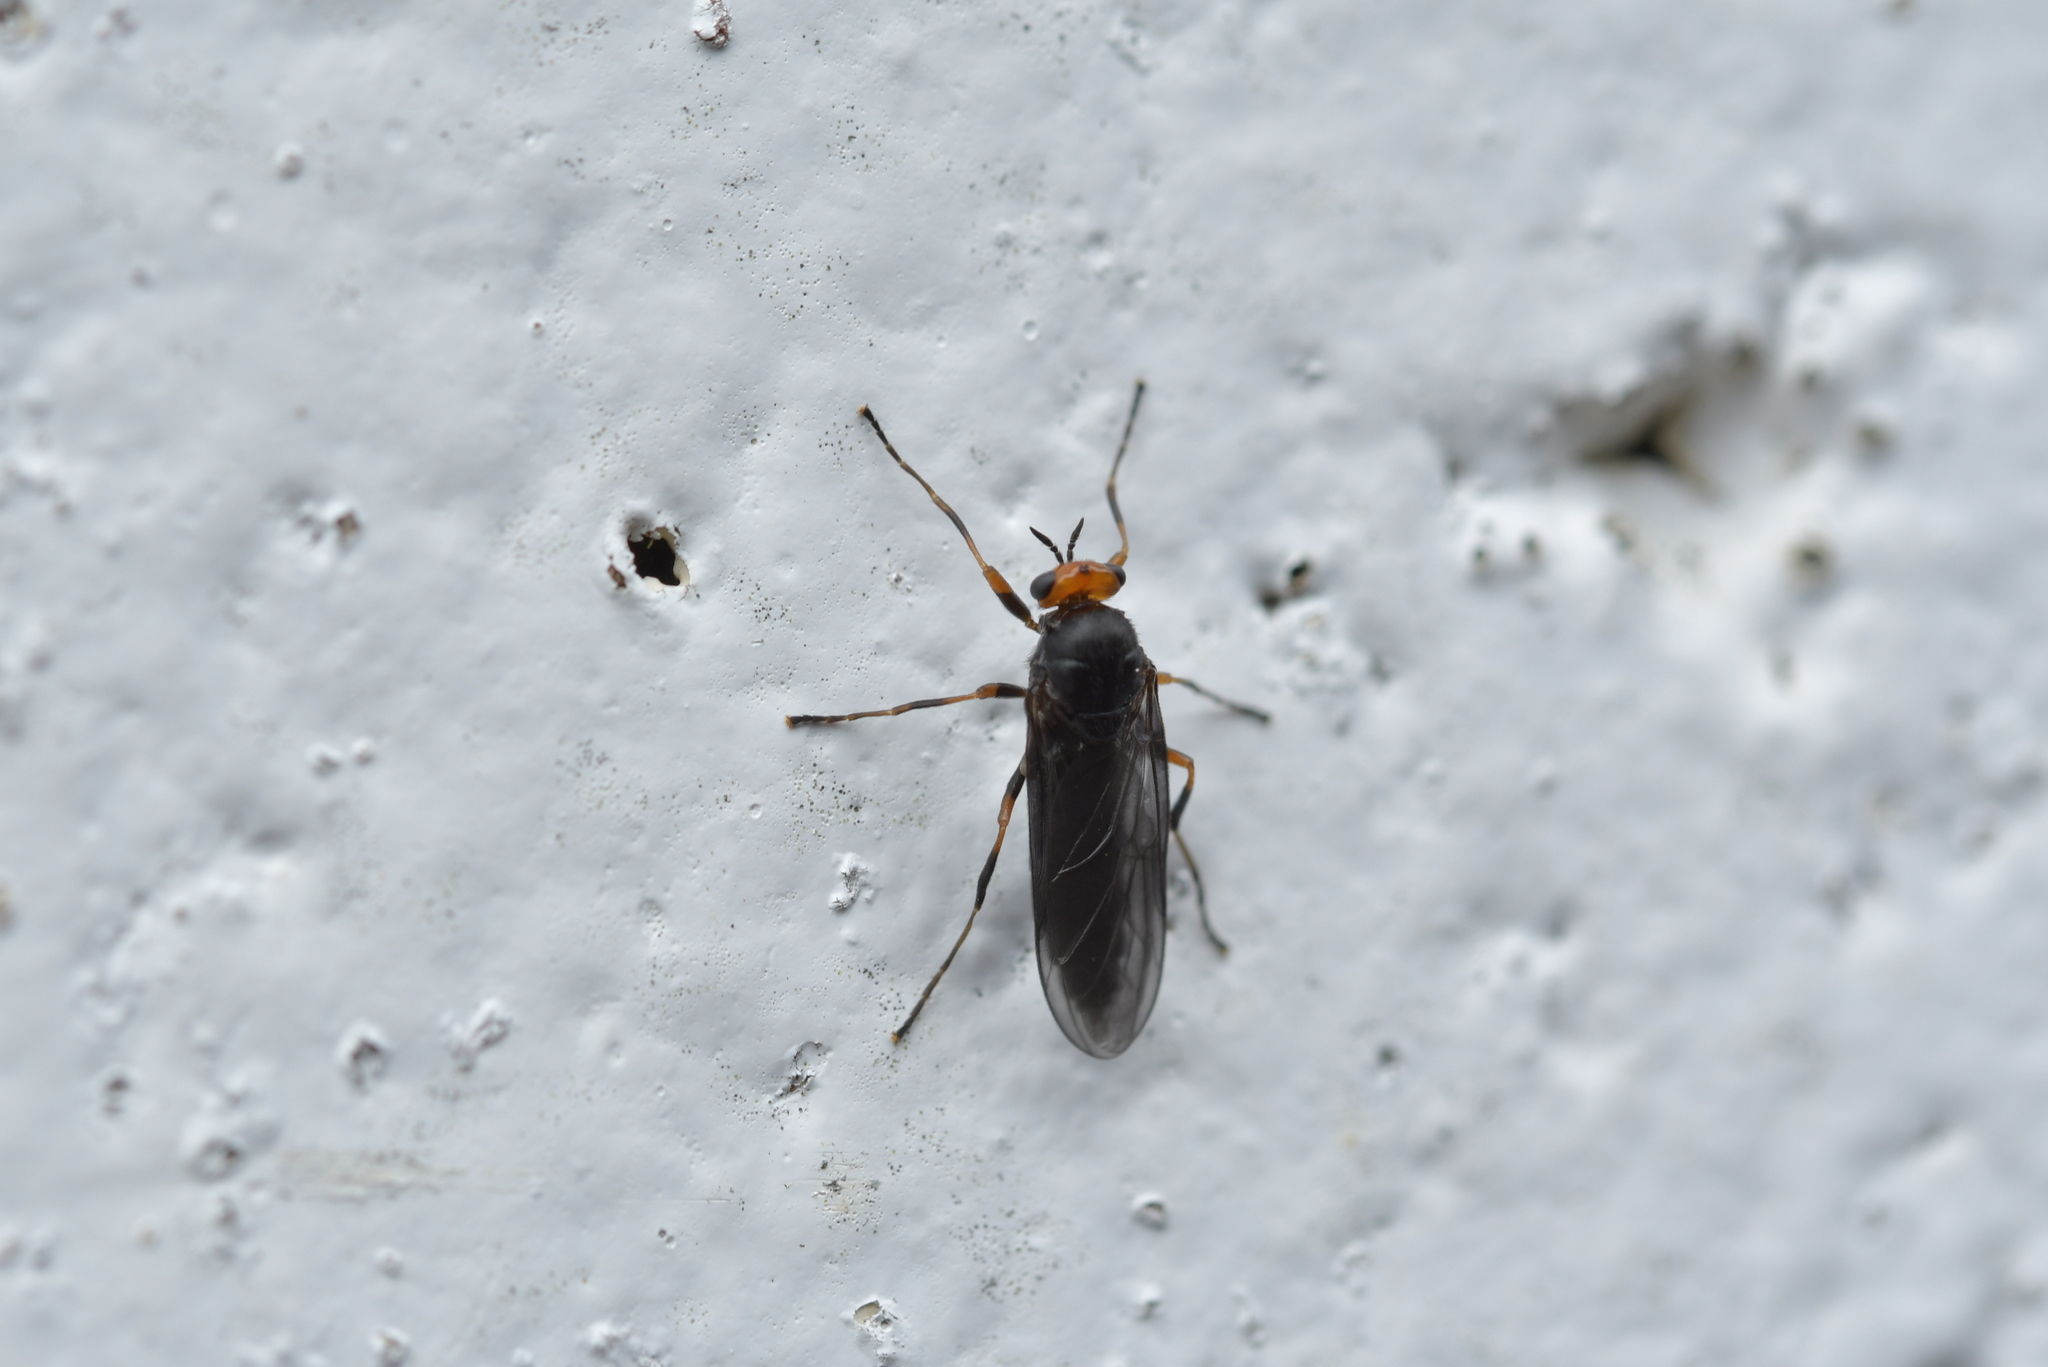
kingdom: Animalia
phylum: Arthropoda
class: Insecta
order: Diptera
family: Stratiomyidae
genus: Inopus
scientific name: Inopus rubriceps
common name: Soldier fly
